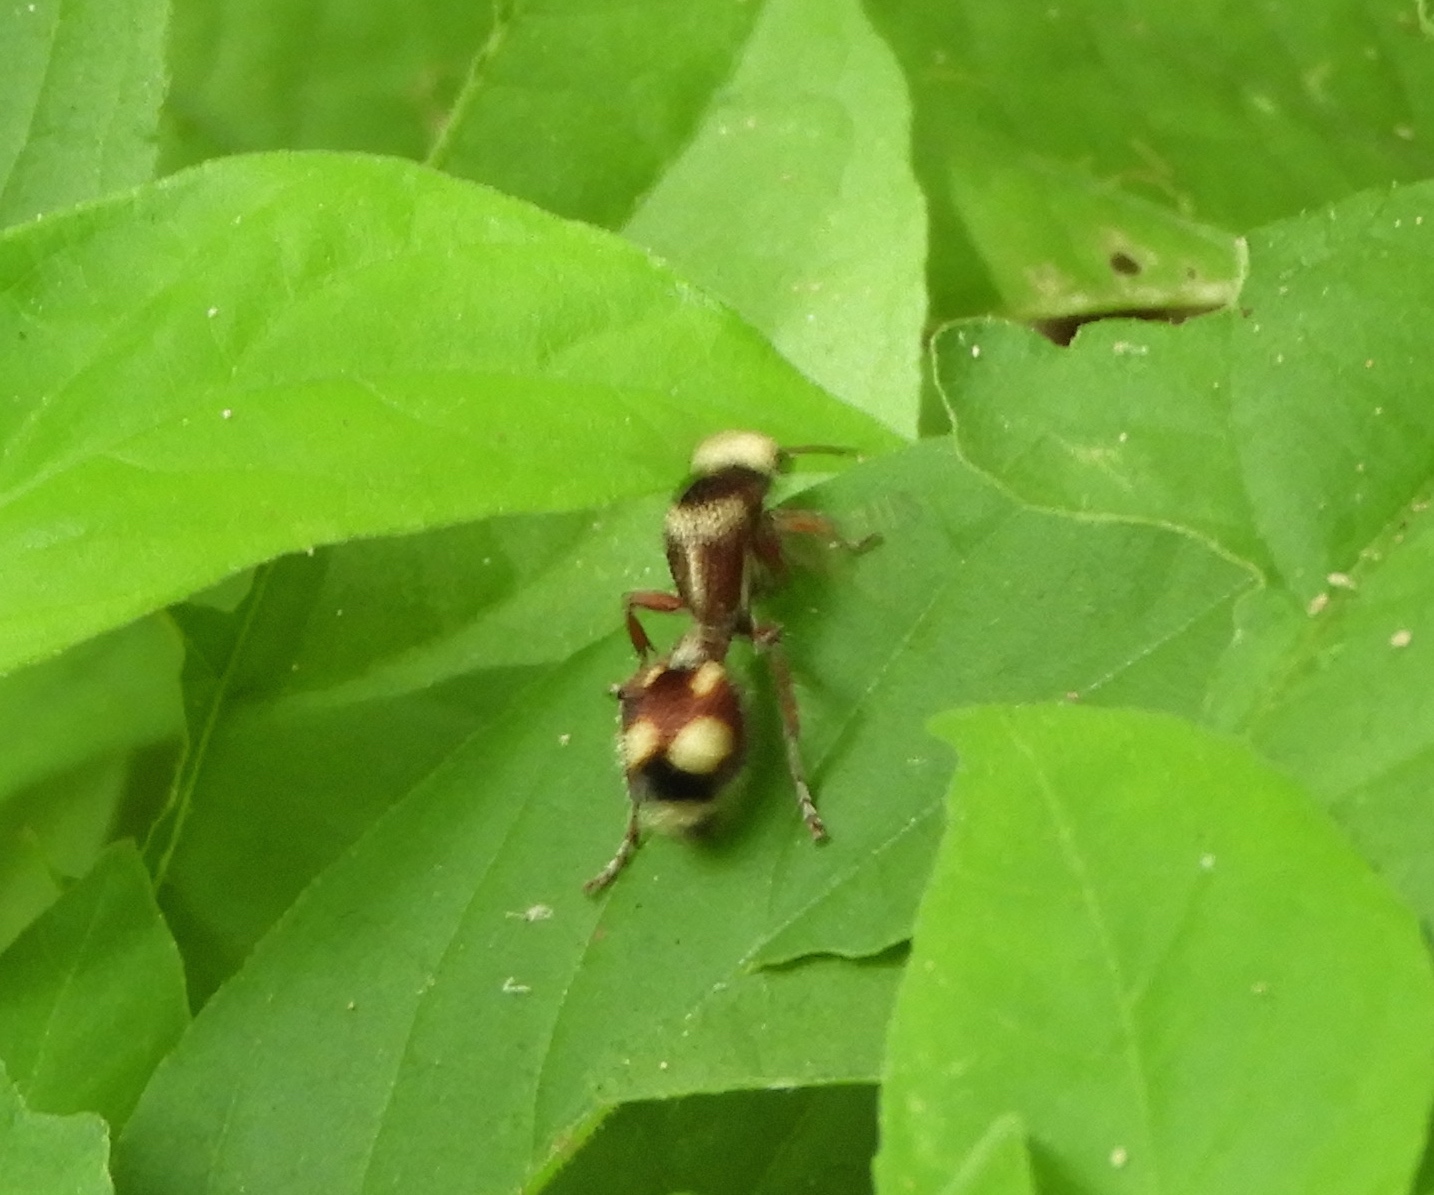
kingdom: Animalia
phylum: Arthropoda
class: Insecta
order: Hymenoptera
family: Mutillidae
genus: Dasymutilla
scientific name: Dasymutilla fasciventris
